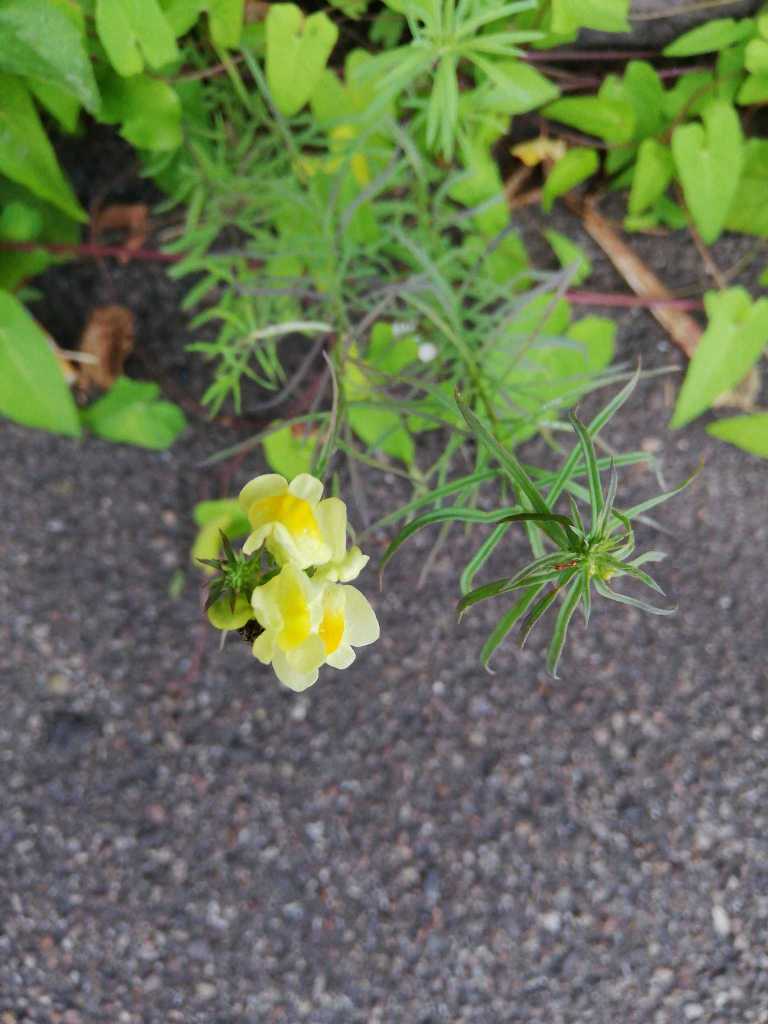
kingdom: Plantae
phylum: Tracheophyta
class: Magnoliopsida
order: Lamiales
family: Plantaginaceae
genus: Linaria
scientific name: Linaria vulgaris
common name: Butter and eggs
